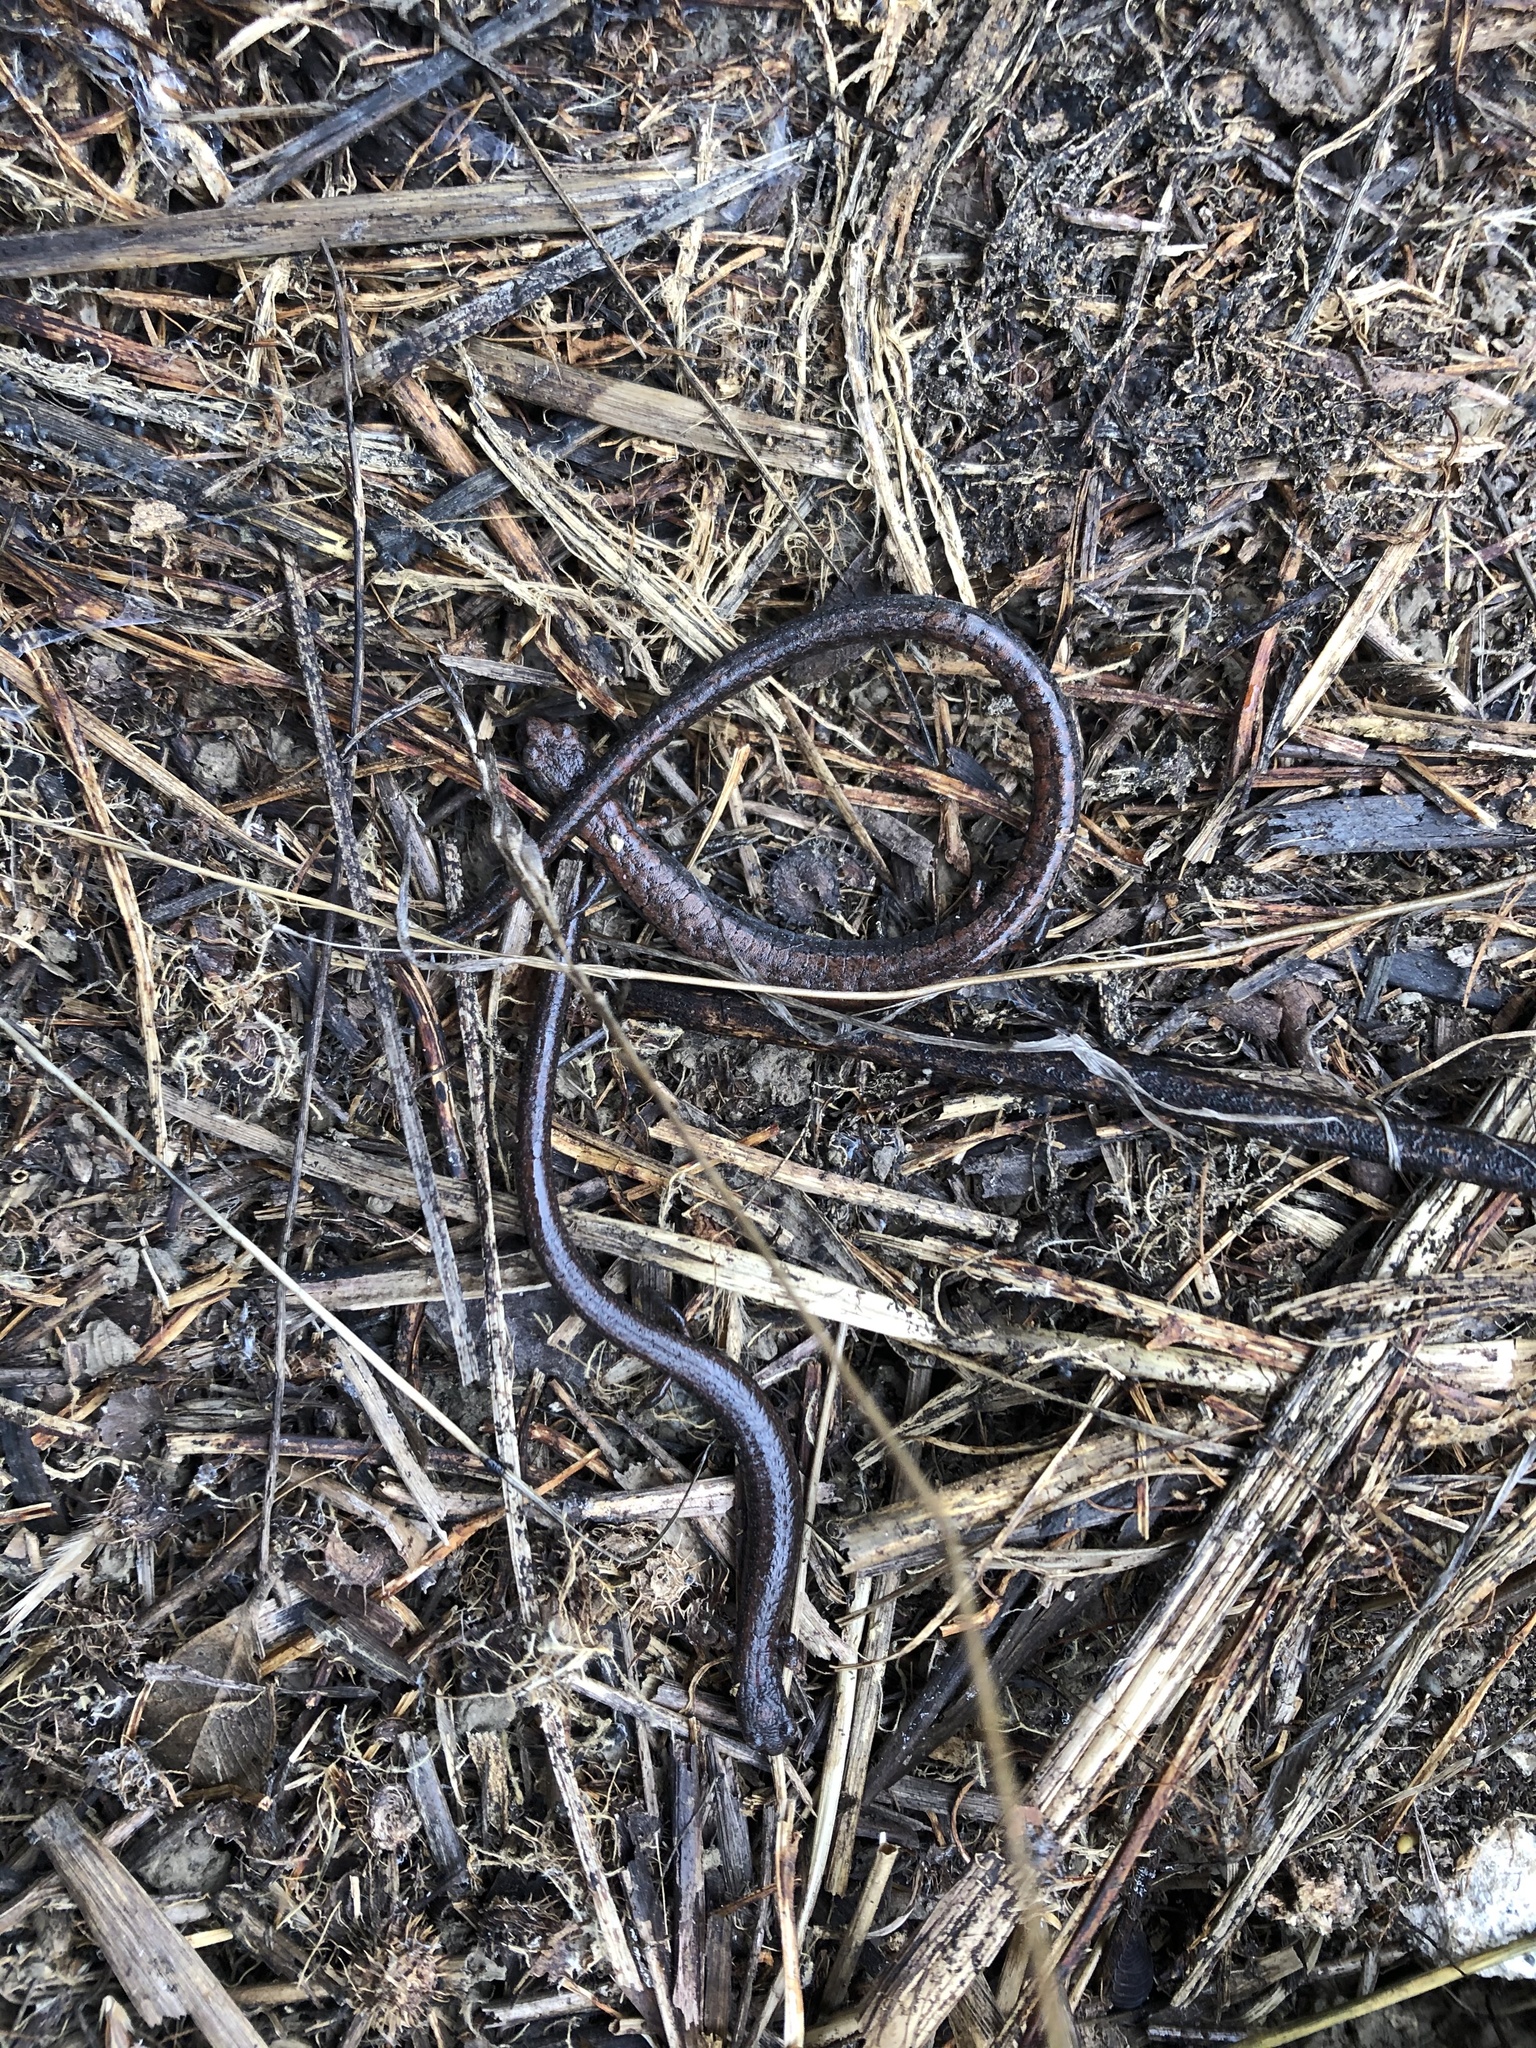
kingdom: Animalia
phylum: Chordata
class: Amphibia
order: Caudata
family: Plethodontidae
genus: Batrachoseps
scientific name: Batrachoseps attenuatus
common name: California slender salamander
